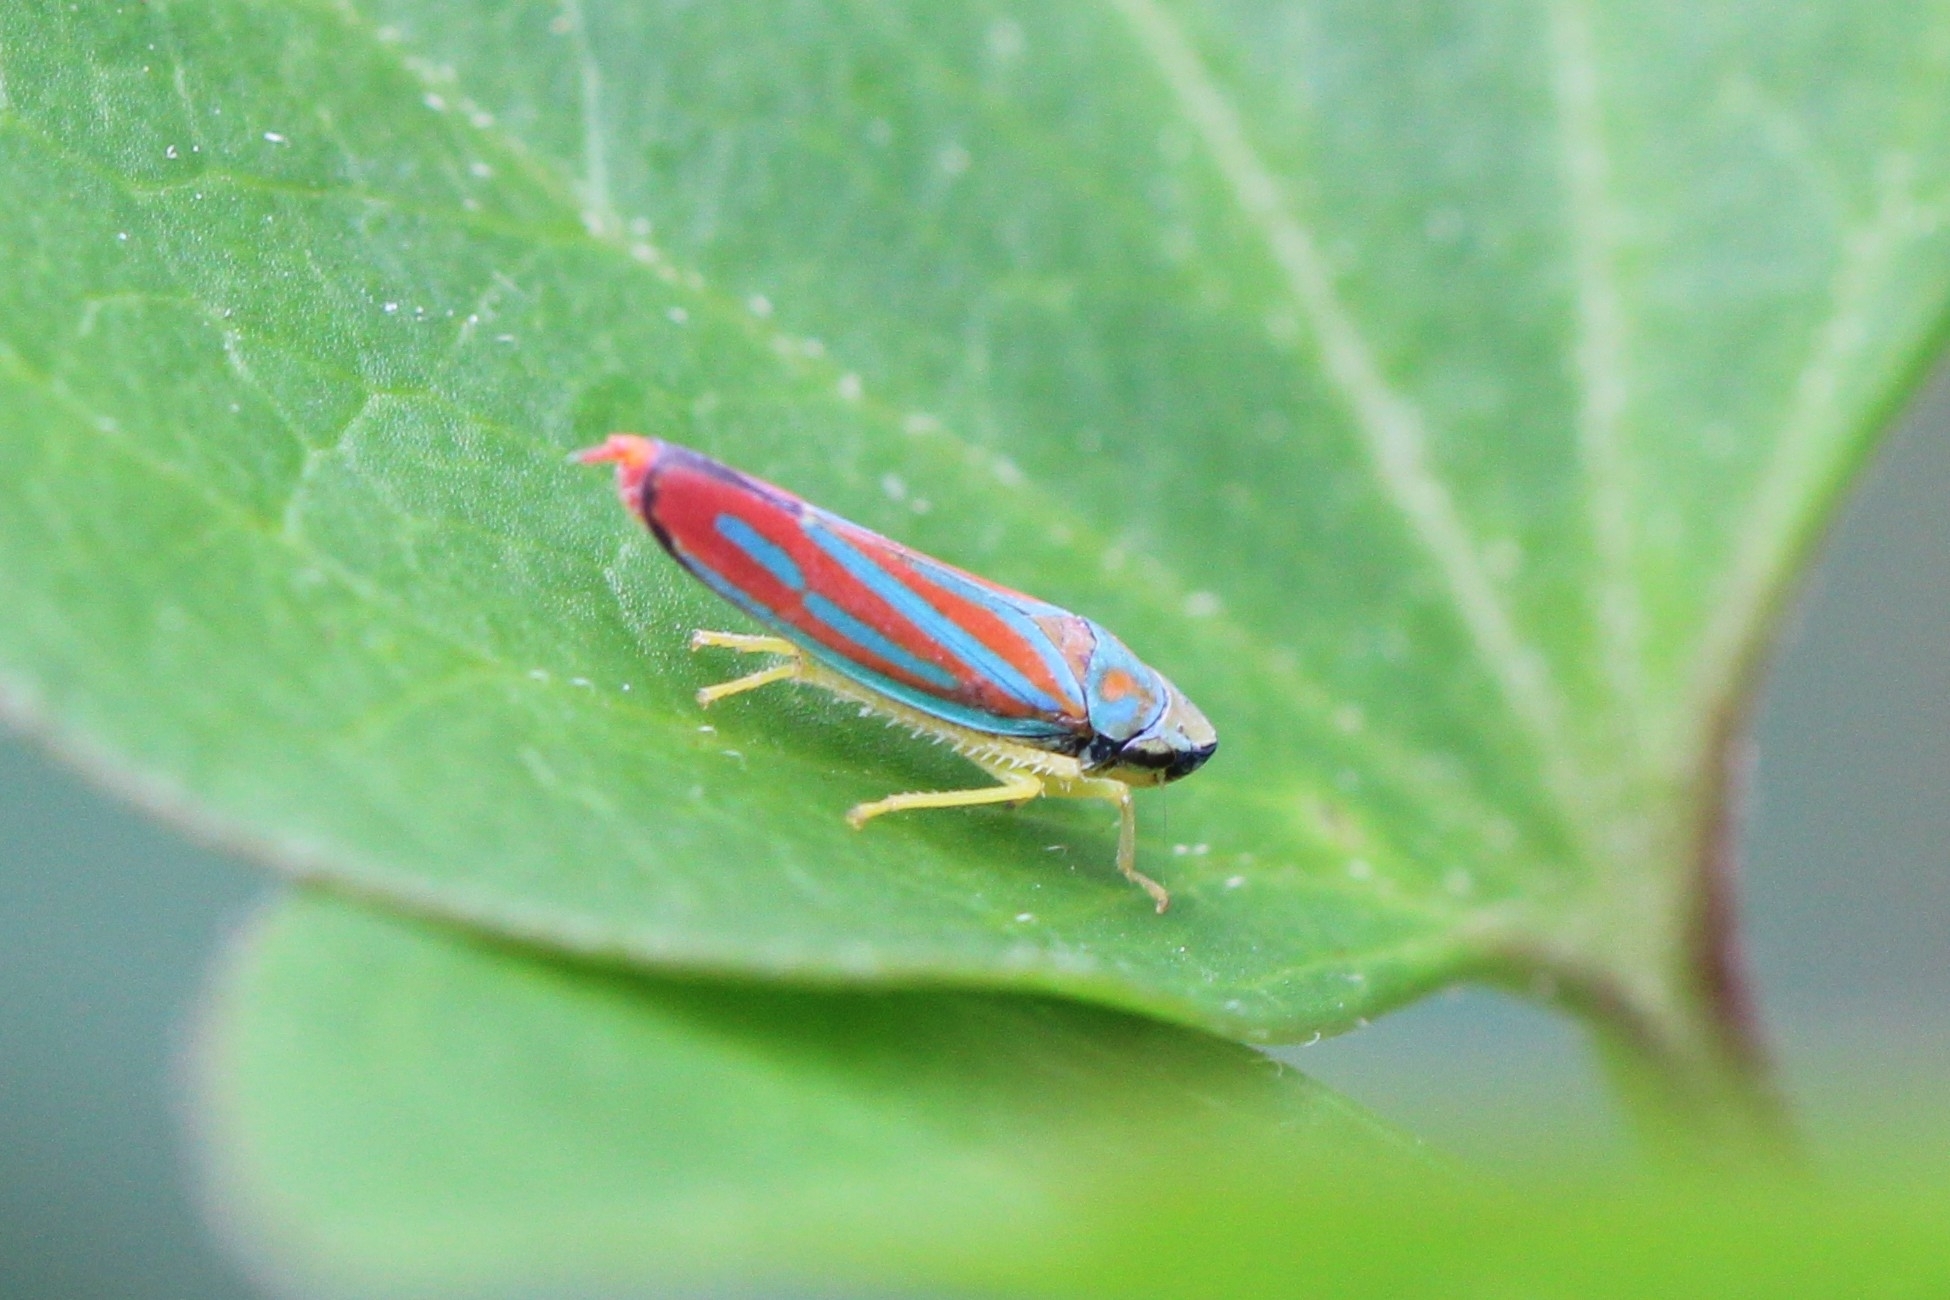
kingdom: Animalia
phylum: Arthropoda
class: Insecta
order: Hemiptera
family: Cicadellidae
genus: Graphocephala
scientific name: Graphocephala coccinea
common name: Candy-striped leafhopper
